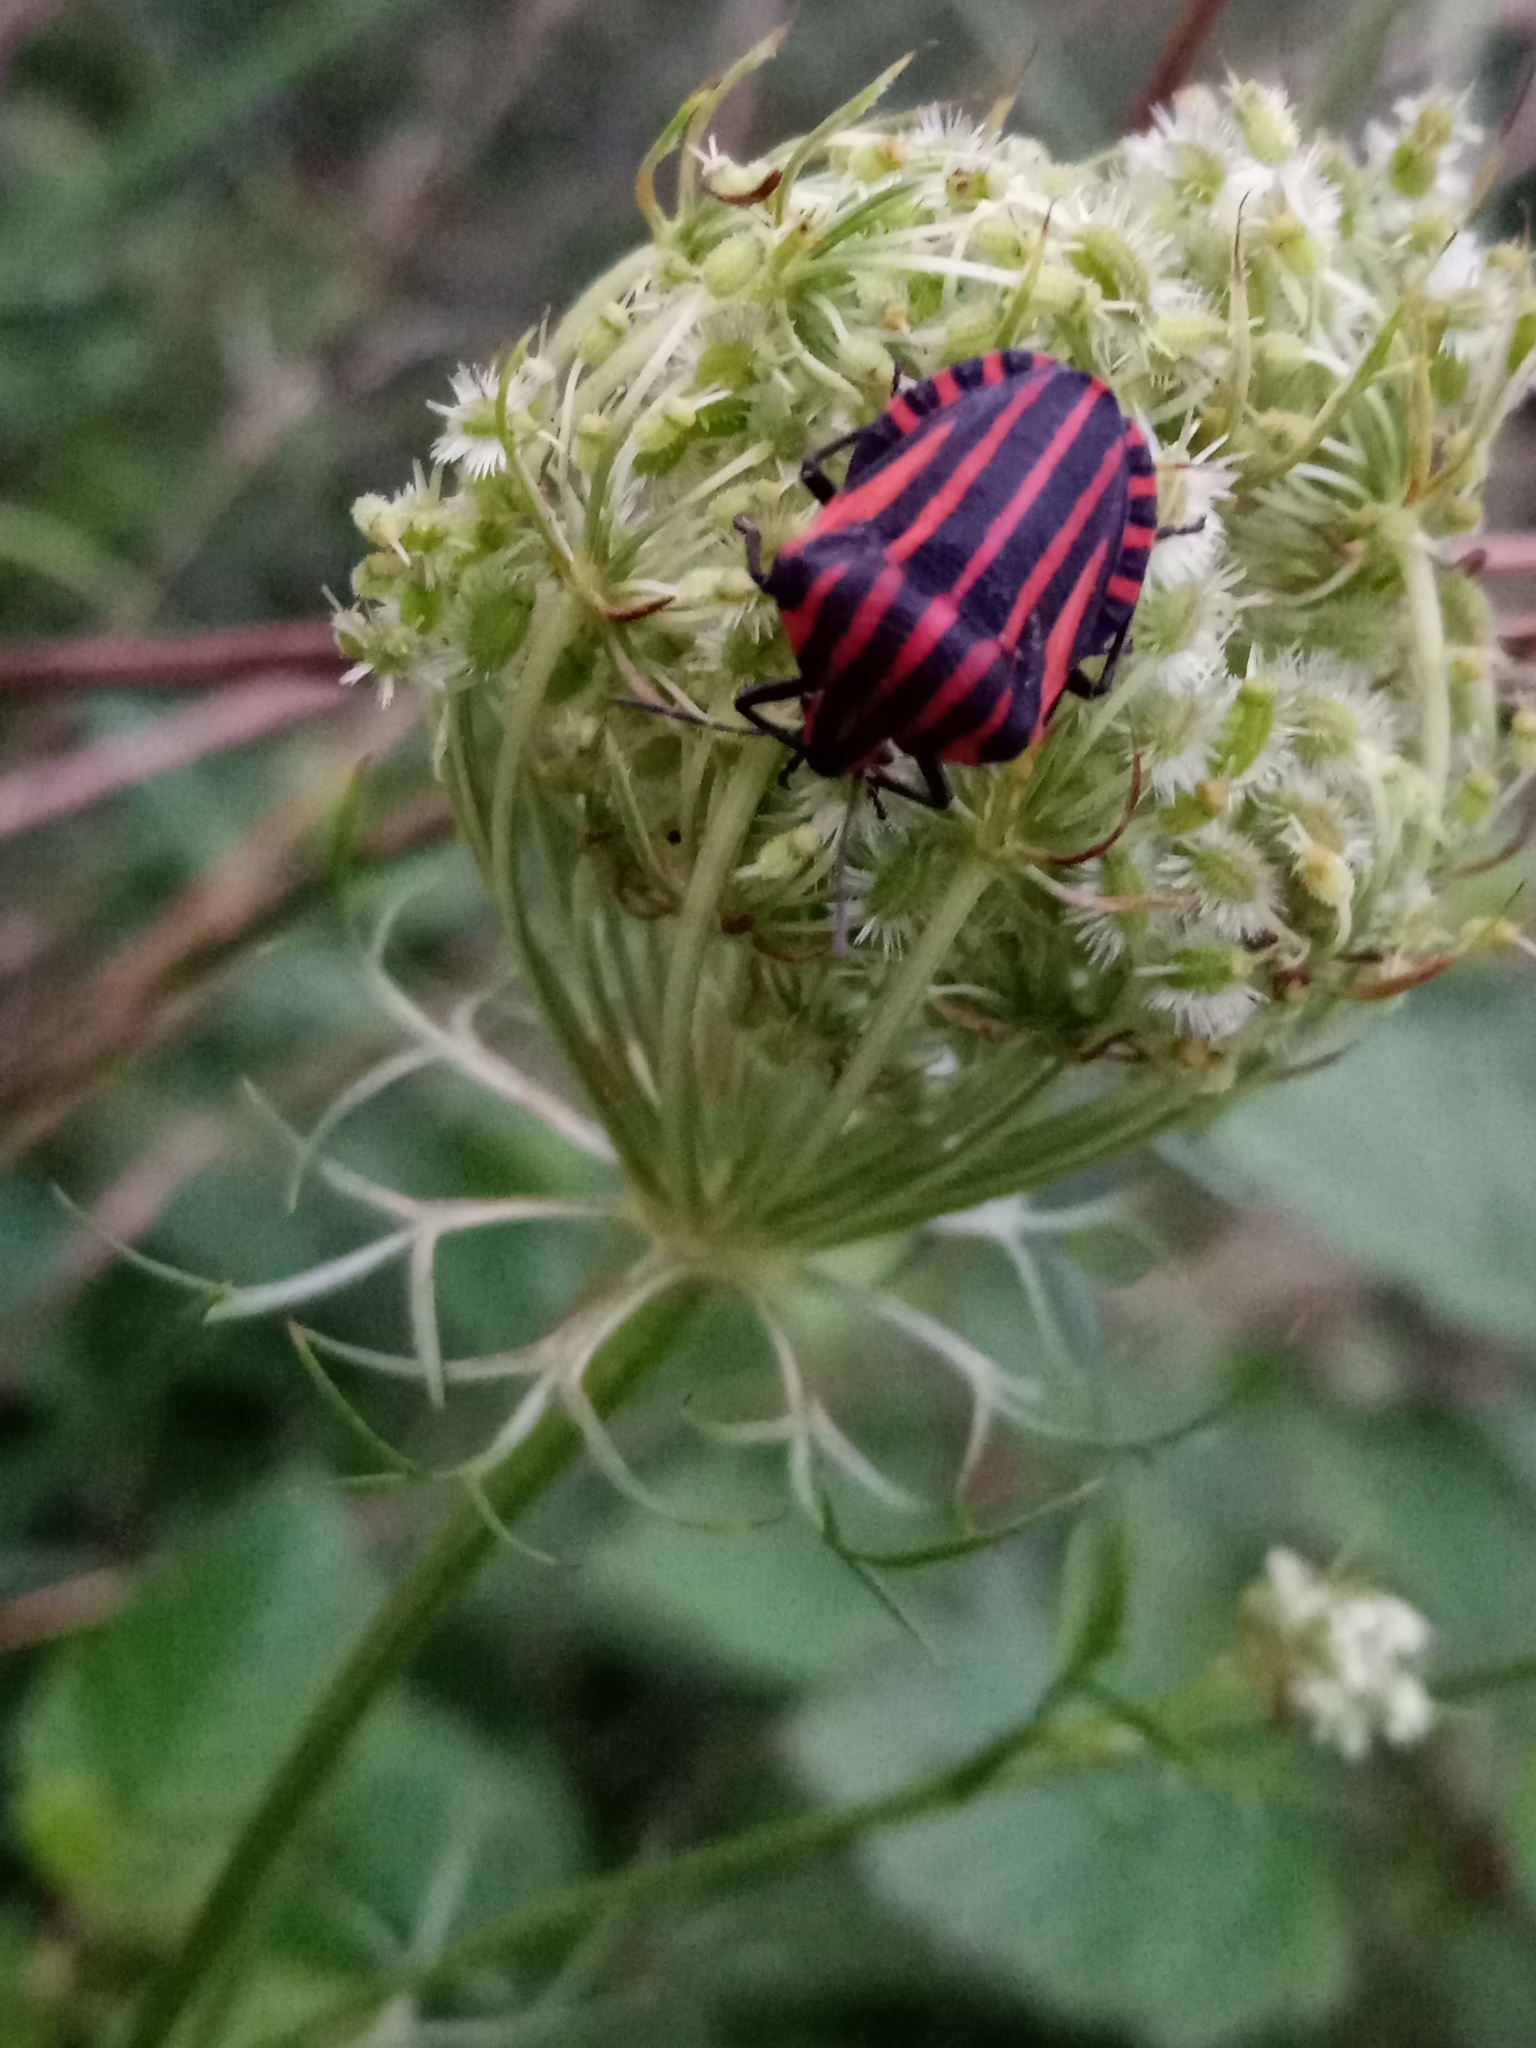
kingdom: Animalia
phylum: Arthropoda
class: Insecta
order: Hemiptera
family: Pentatomidae
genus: Graphosoma
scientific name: Graphosoma italicum
